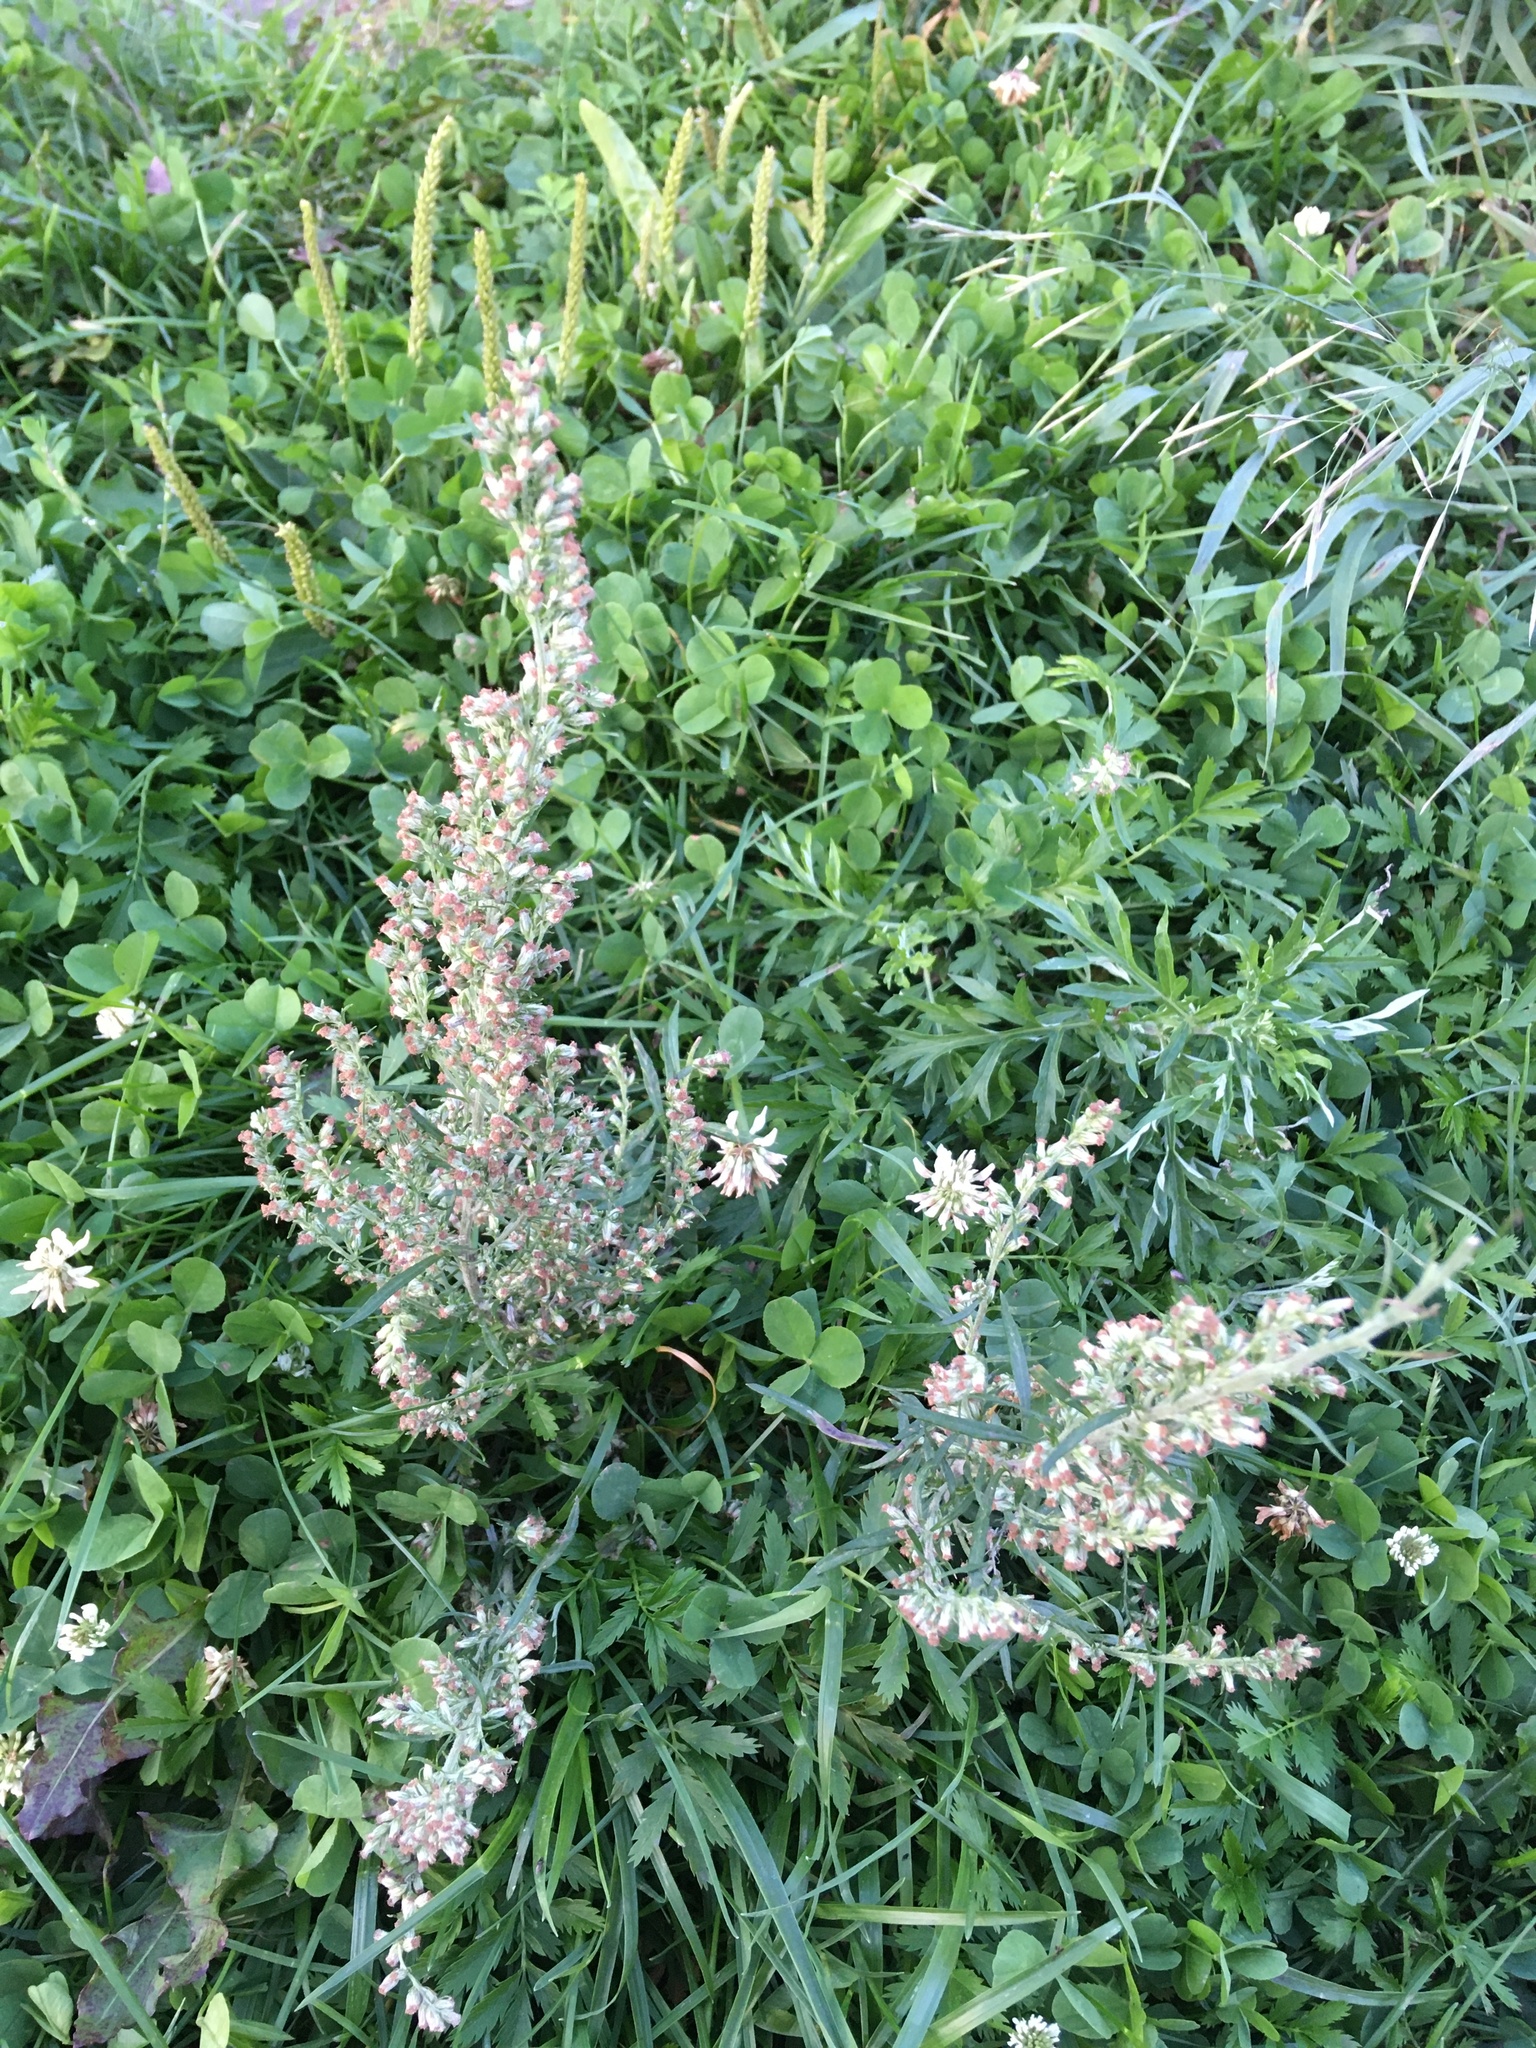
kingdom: Plantae
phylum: Tracheophyta
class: Magnoliopsida
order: Asterales
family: Asteraceae
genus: Artemisia
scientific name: Artemisia vulgaris
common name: Mugwort
